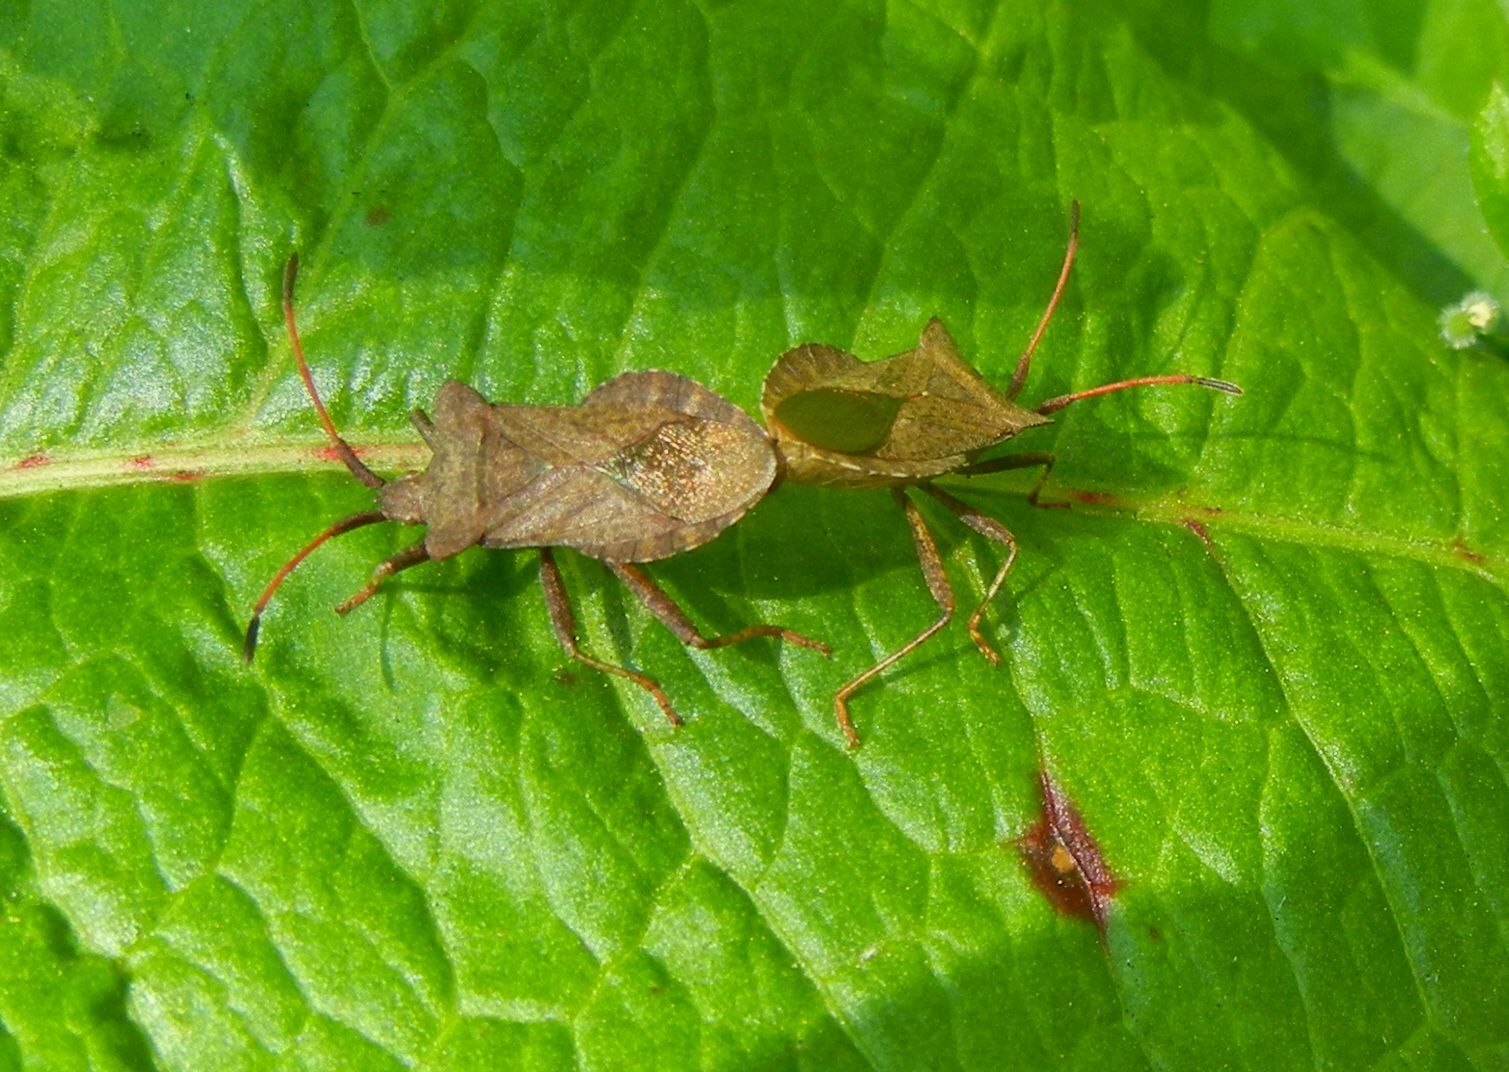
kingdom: Animalia
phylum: Arthropoda
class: Insecta
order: Hemiptera
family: Coreidae
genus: Coreus
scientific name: Coreus marginatus
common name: Dock bug
